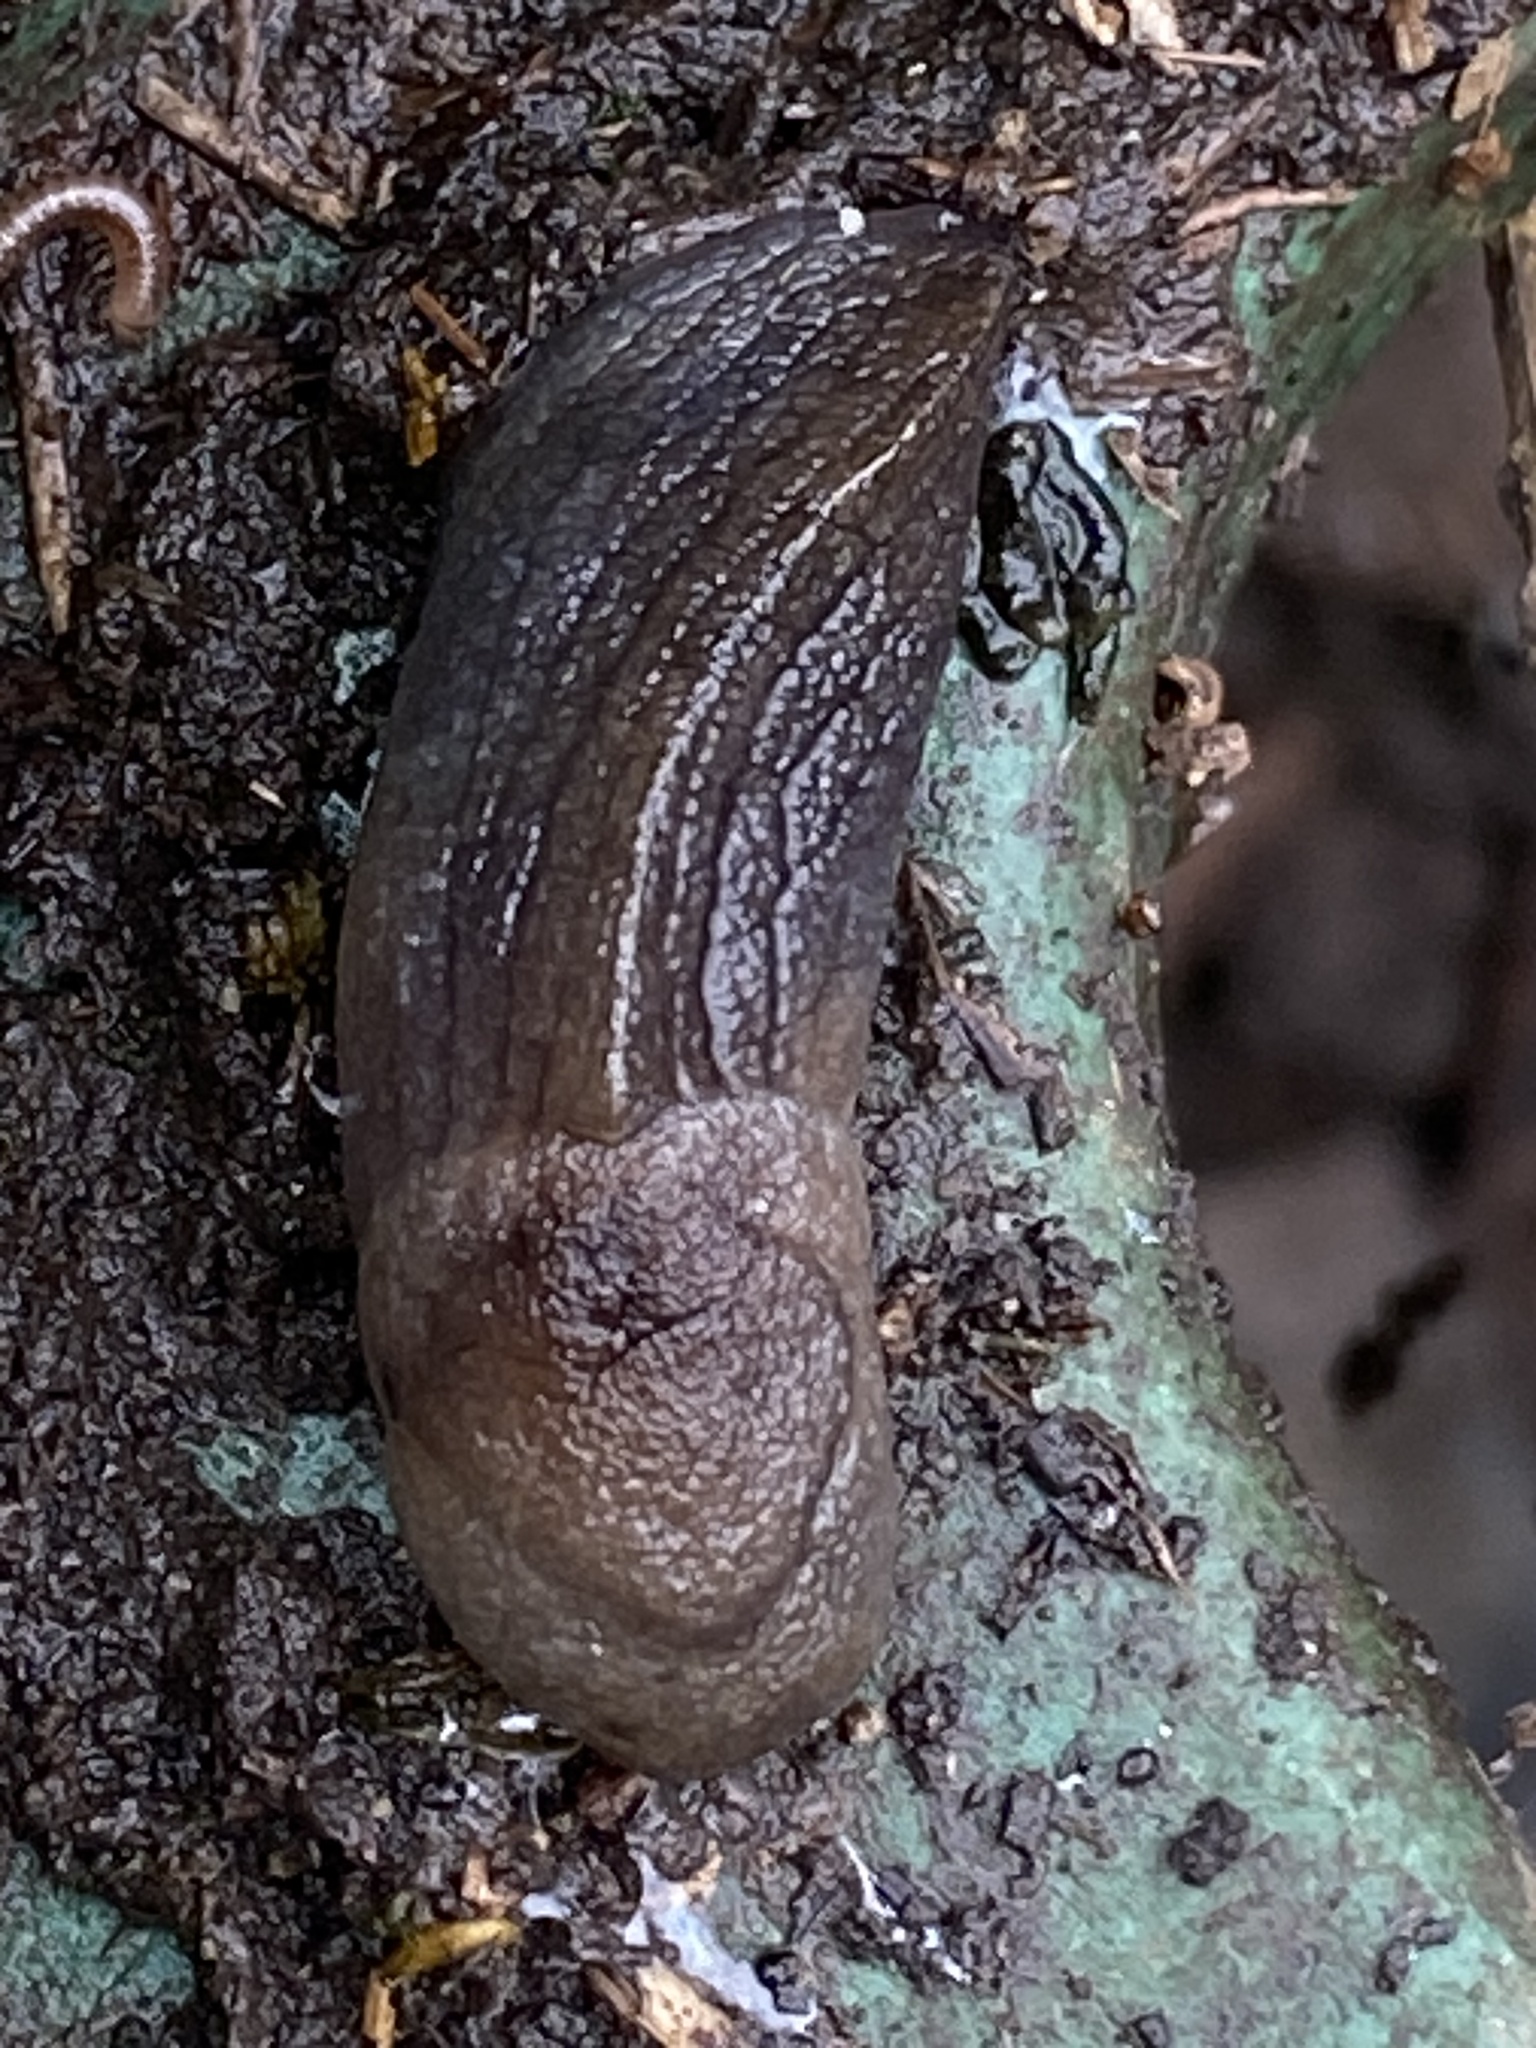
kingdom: Animalia
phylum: Mollusca
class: Gastropoda
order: Stylommatophora
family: Milacidae
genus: Milax
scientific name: Milax gagates
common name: Greenhouse slug
